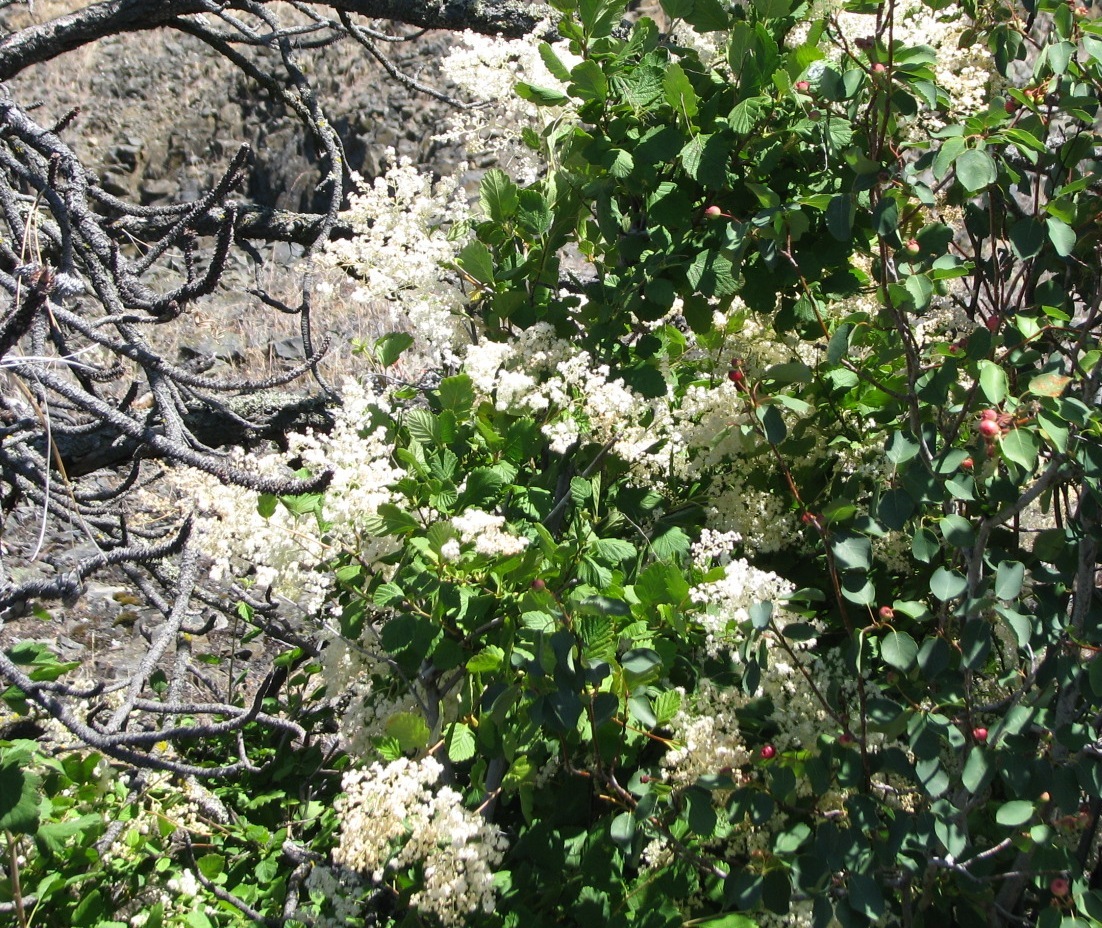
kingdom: Plantae
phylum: Tracheophyta
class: Magnoliopsida
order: Rosales
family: Rosaceae
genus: Holodiscus
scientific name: Holodiscus discolor
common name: Oceanspray
